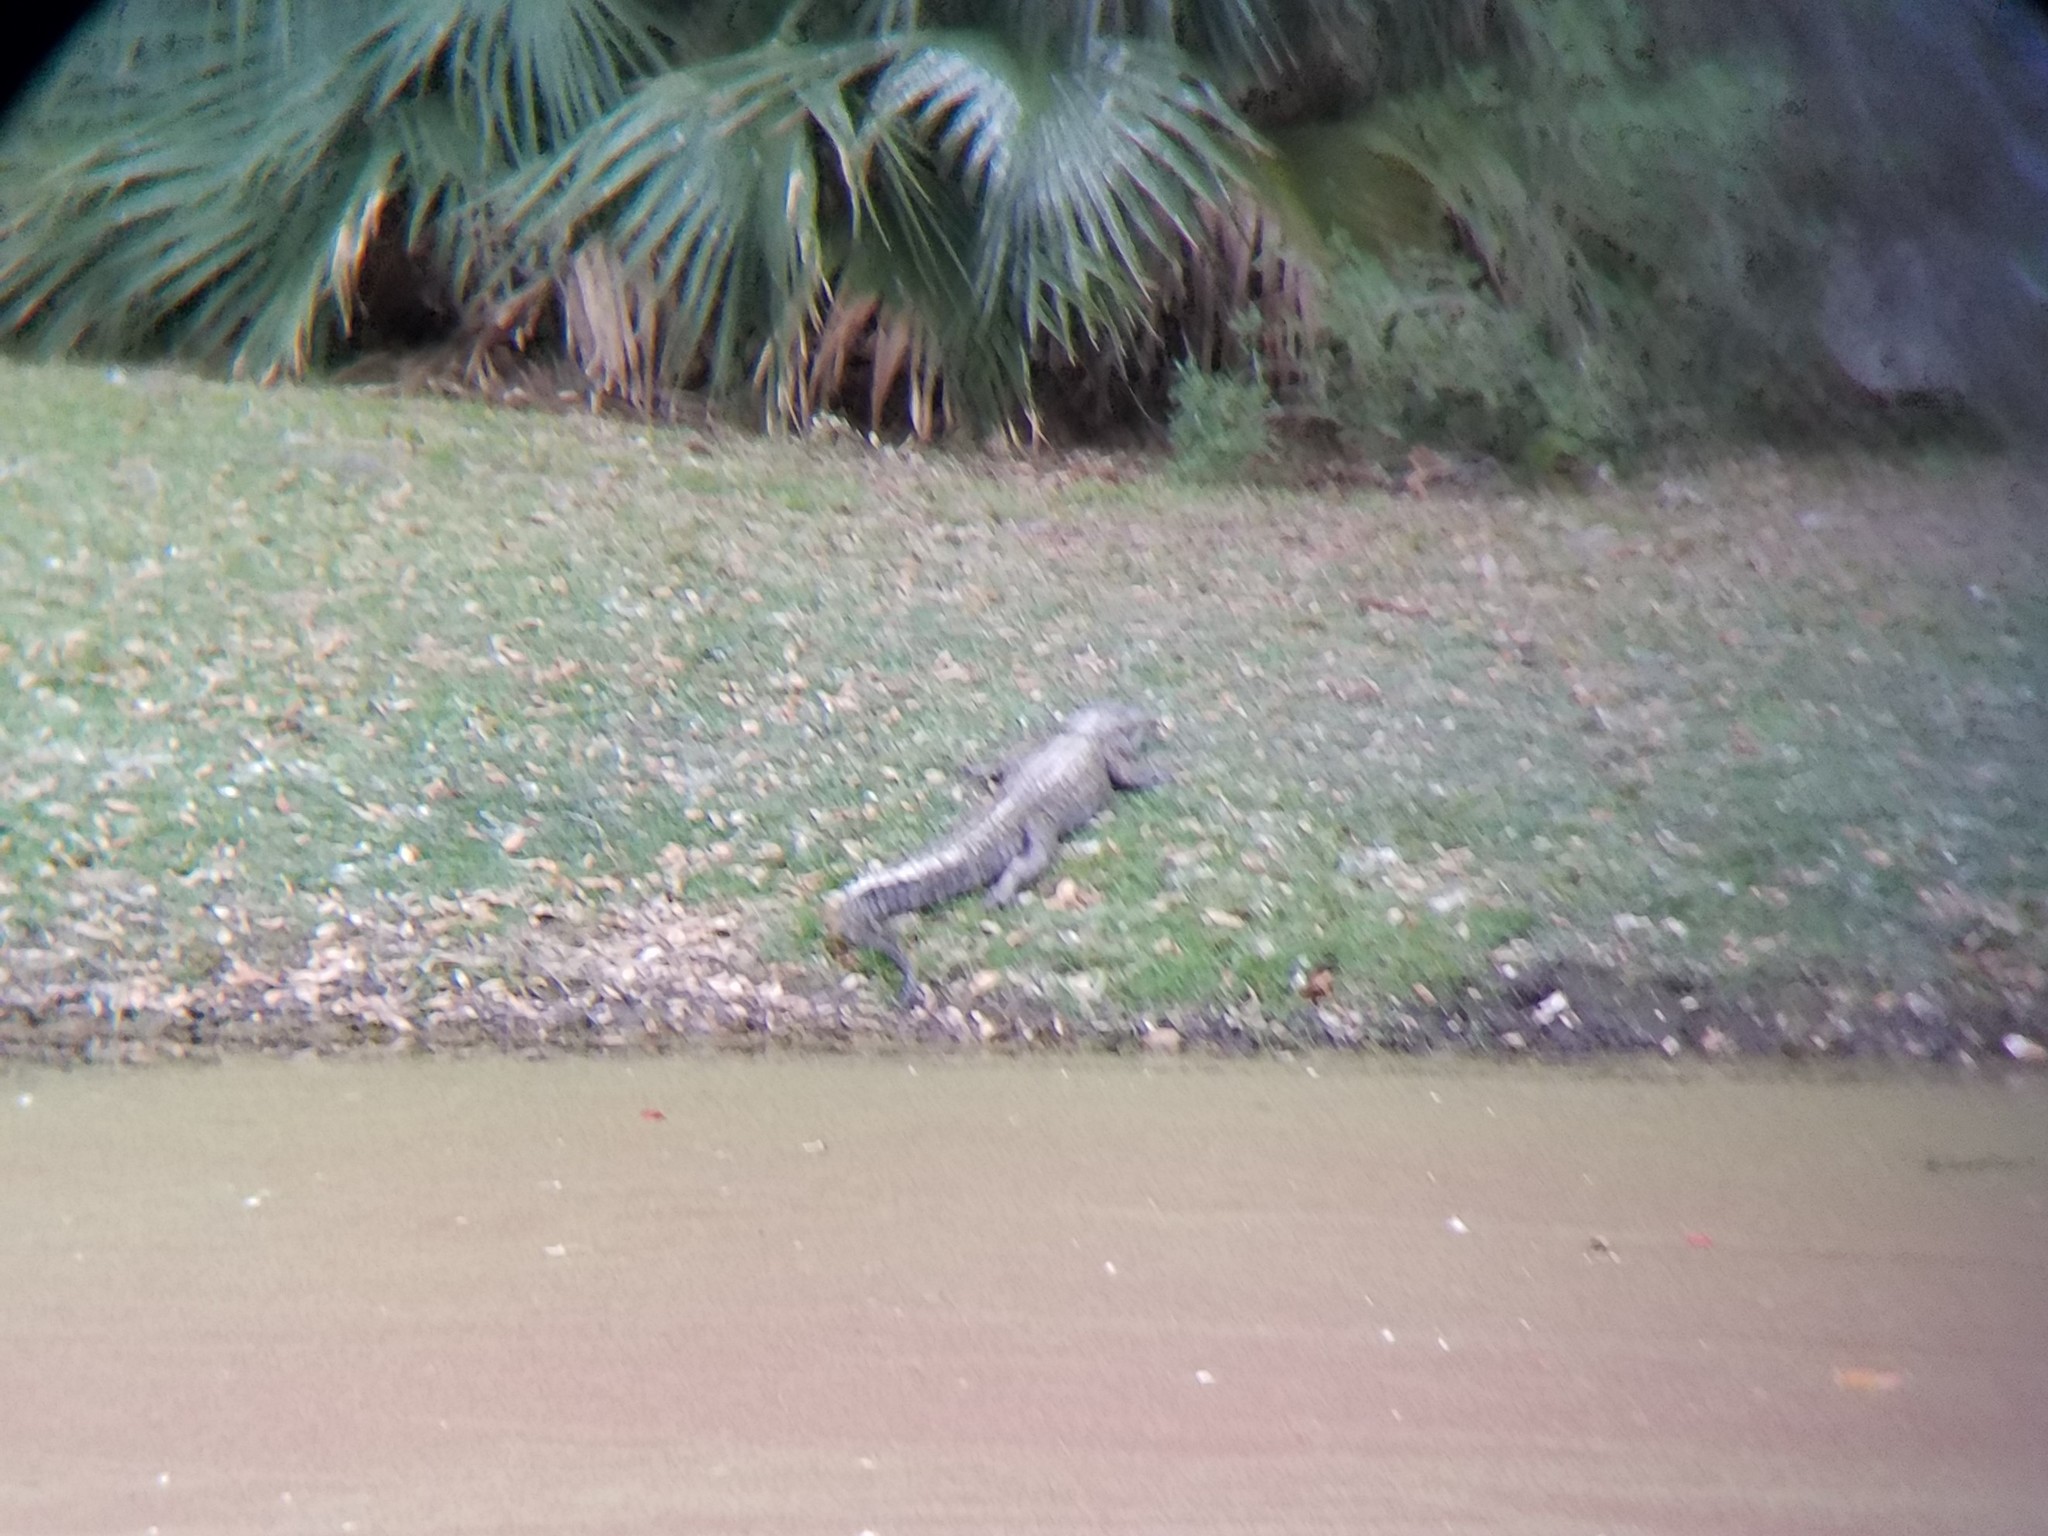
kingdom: Animalia
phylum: Chordata
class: Crocodylia
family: Alligatoridae
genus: Alligator
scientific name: Alligator mississippiensis
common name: American alligator
